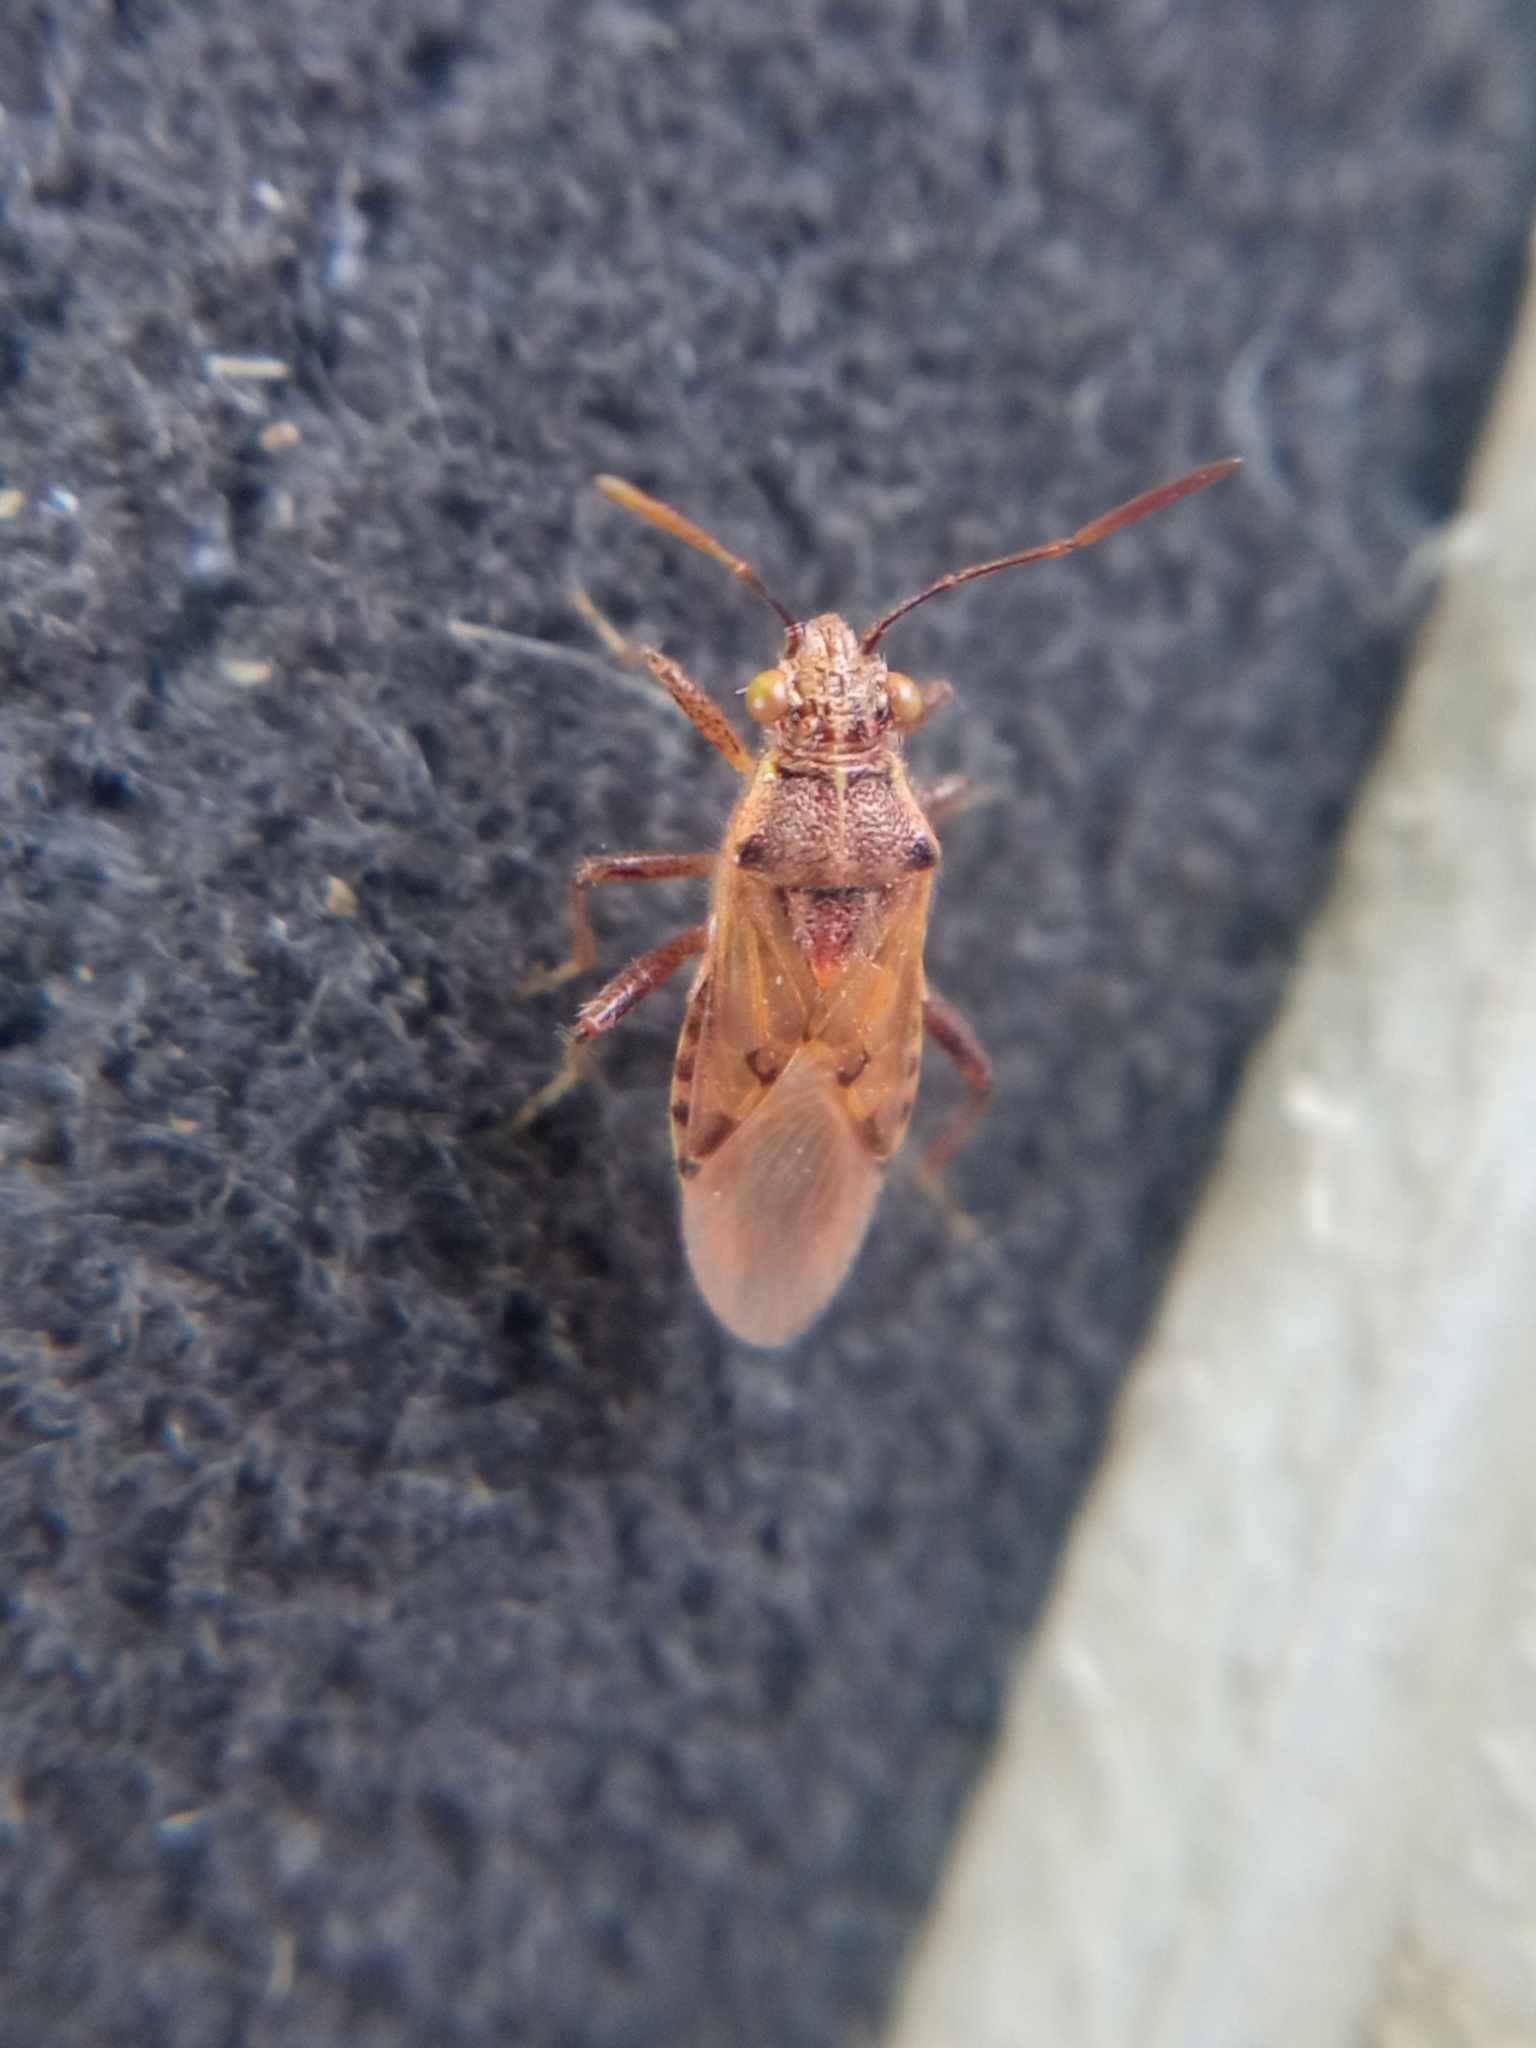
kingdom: Animalia
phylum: Arthropoda
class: Insecta
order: Hemiptera
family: Rhopalidae
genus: Liorhyssus
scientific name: Liorhyssus hyalinus
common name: Scentless plant bug
